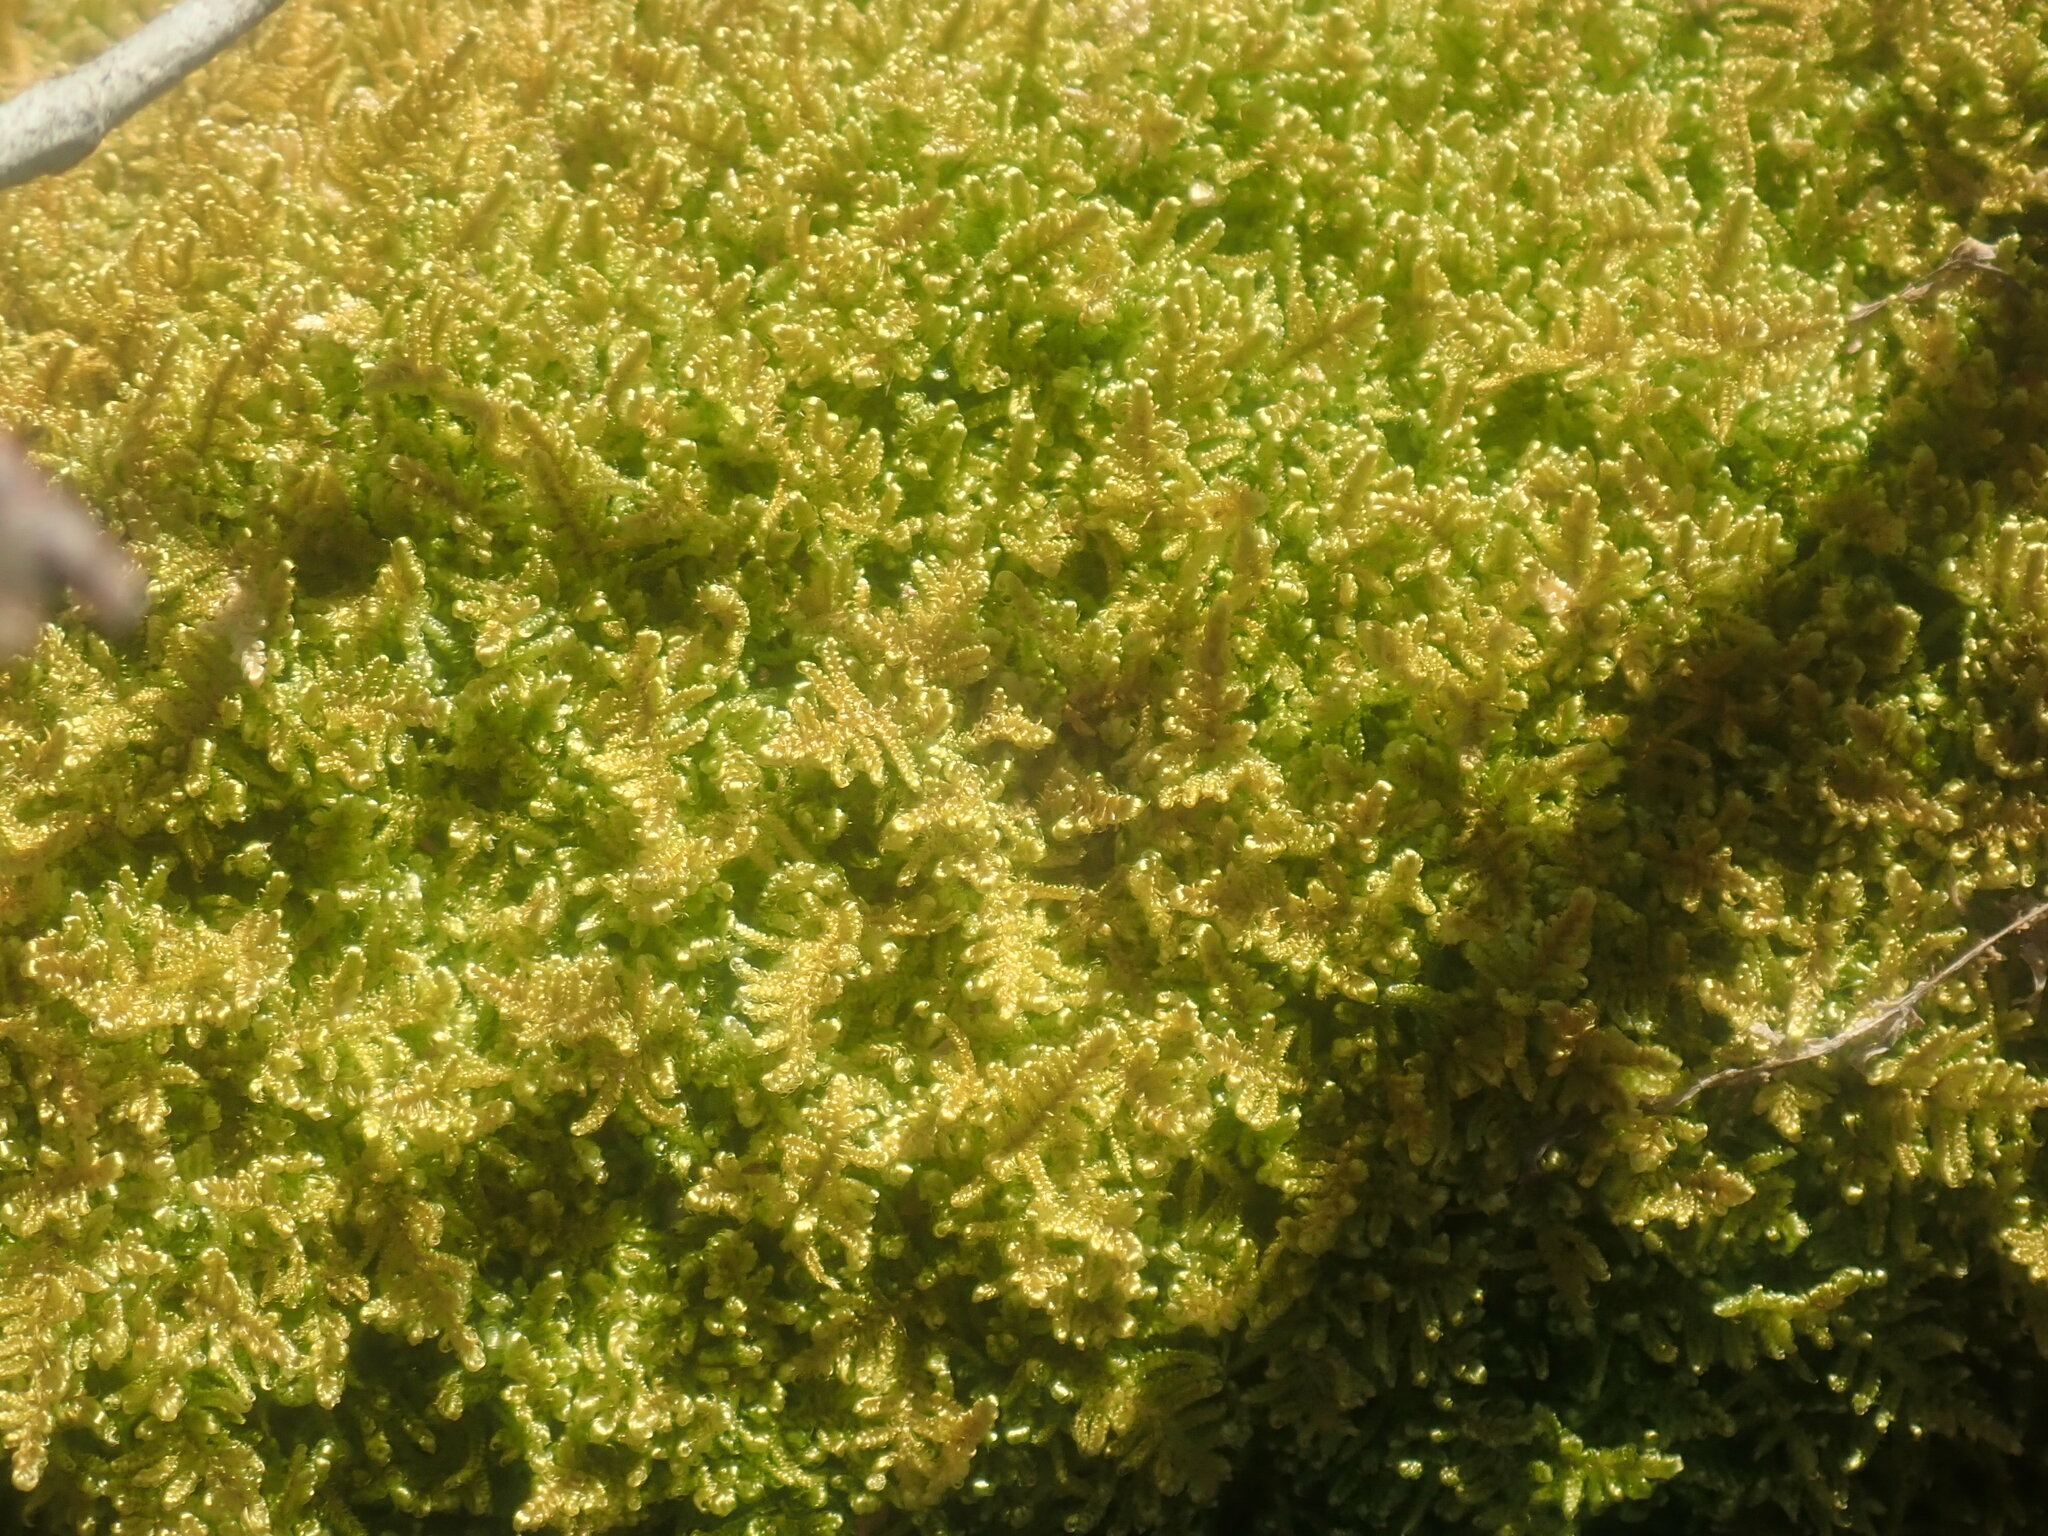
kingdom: Plantae
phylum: Bryophyta
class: Bryopsida
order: Hypnales
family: Callicladiaceae
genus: Callicladium
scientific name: Callicladium imponens
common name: Brocade moss
